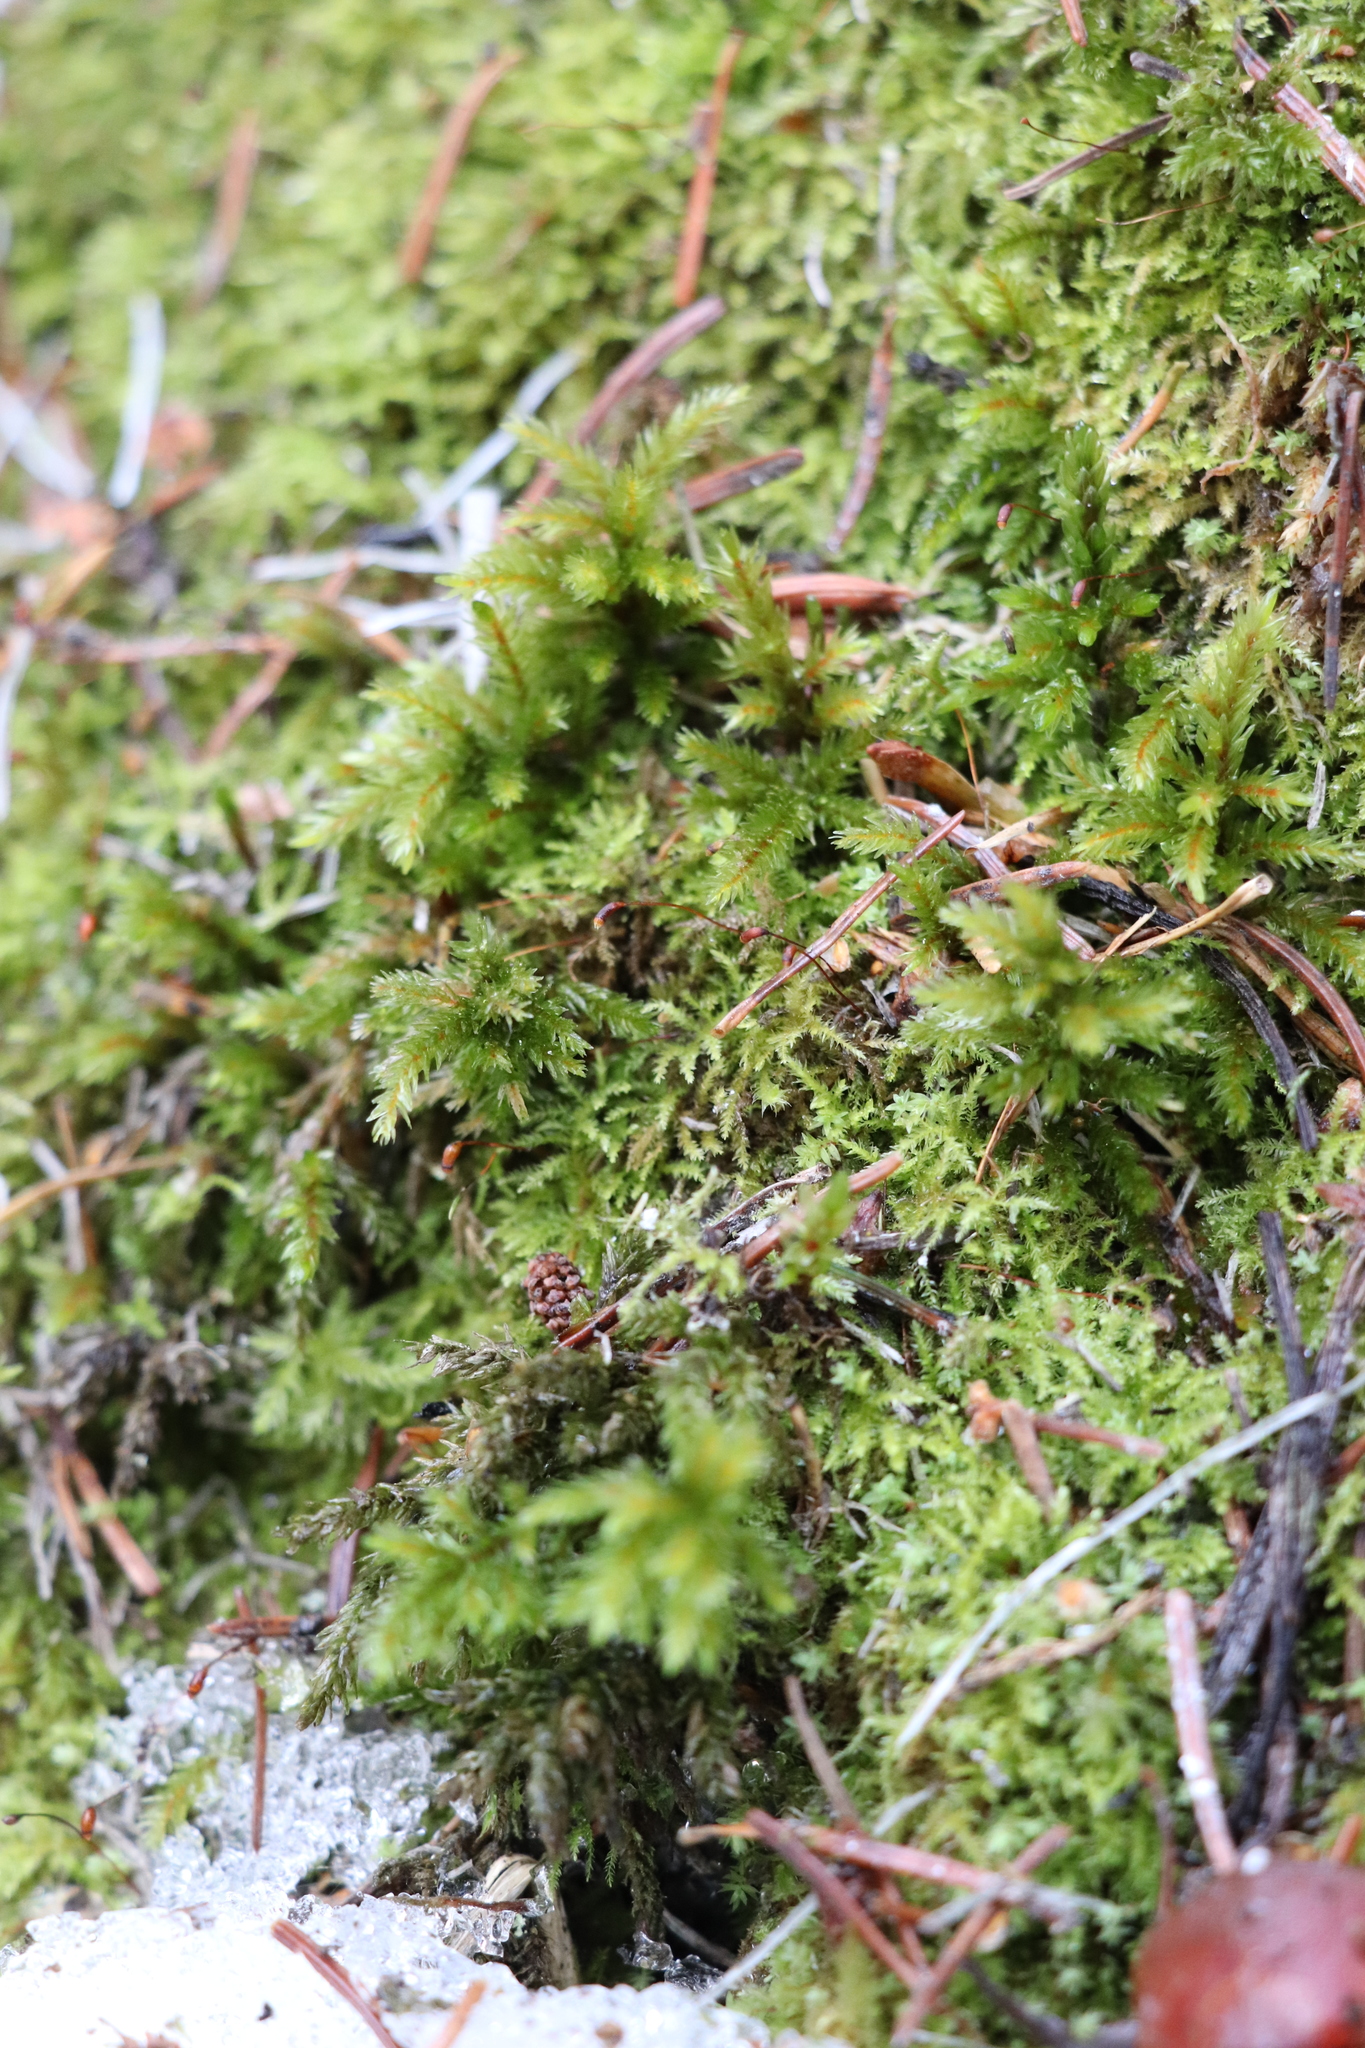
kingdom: Plantae
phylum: Bryophyta
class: Bryopsida
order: Hypnales
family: Climaciaceae
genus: Climacium
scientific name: Climacium dendroides
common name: Northern tree moss
